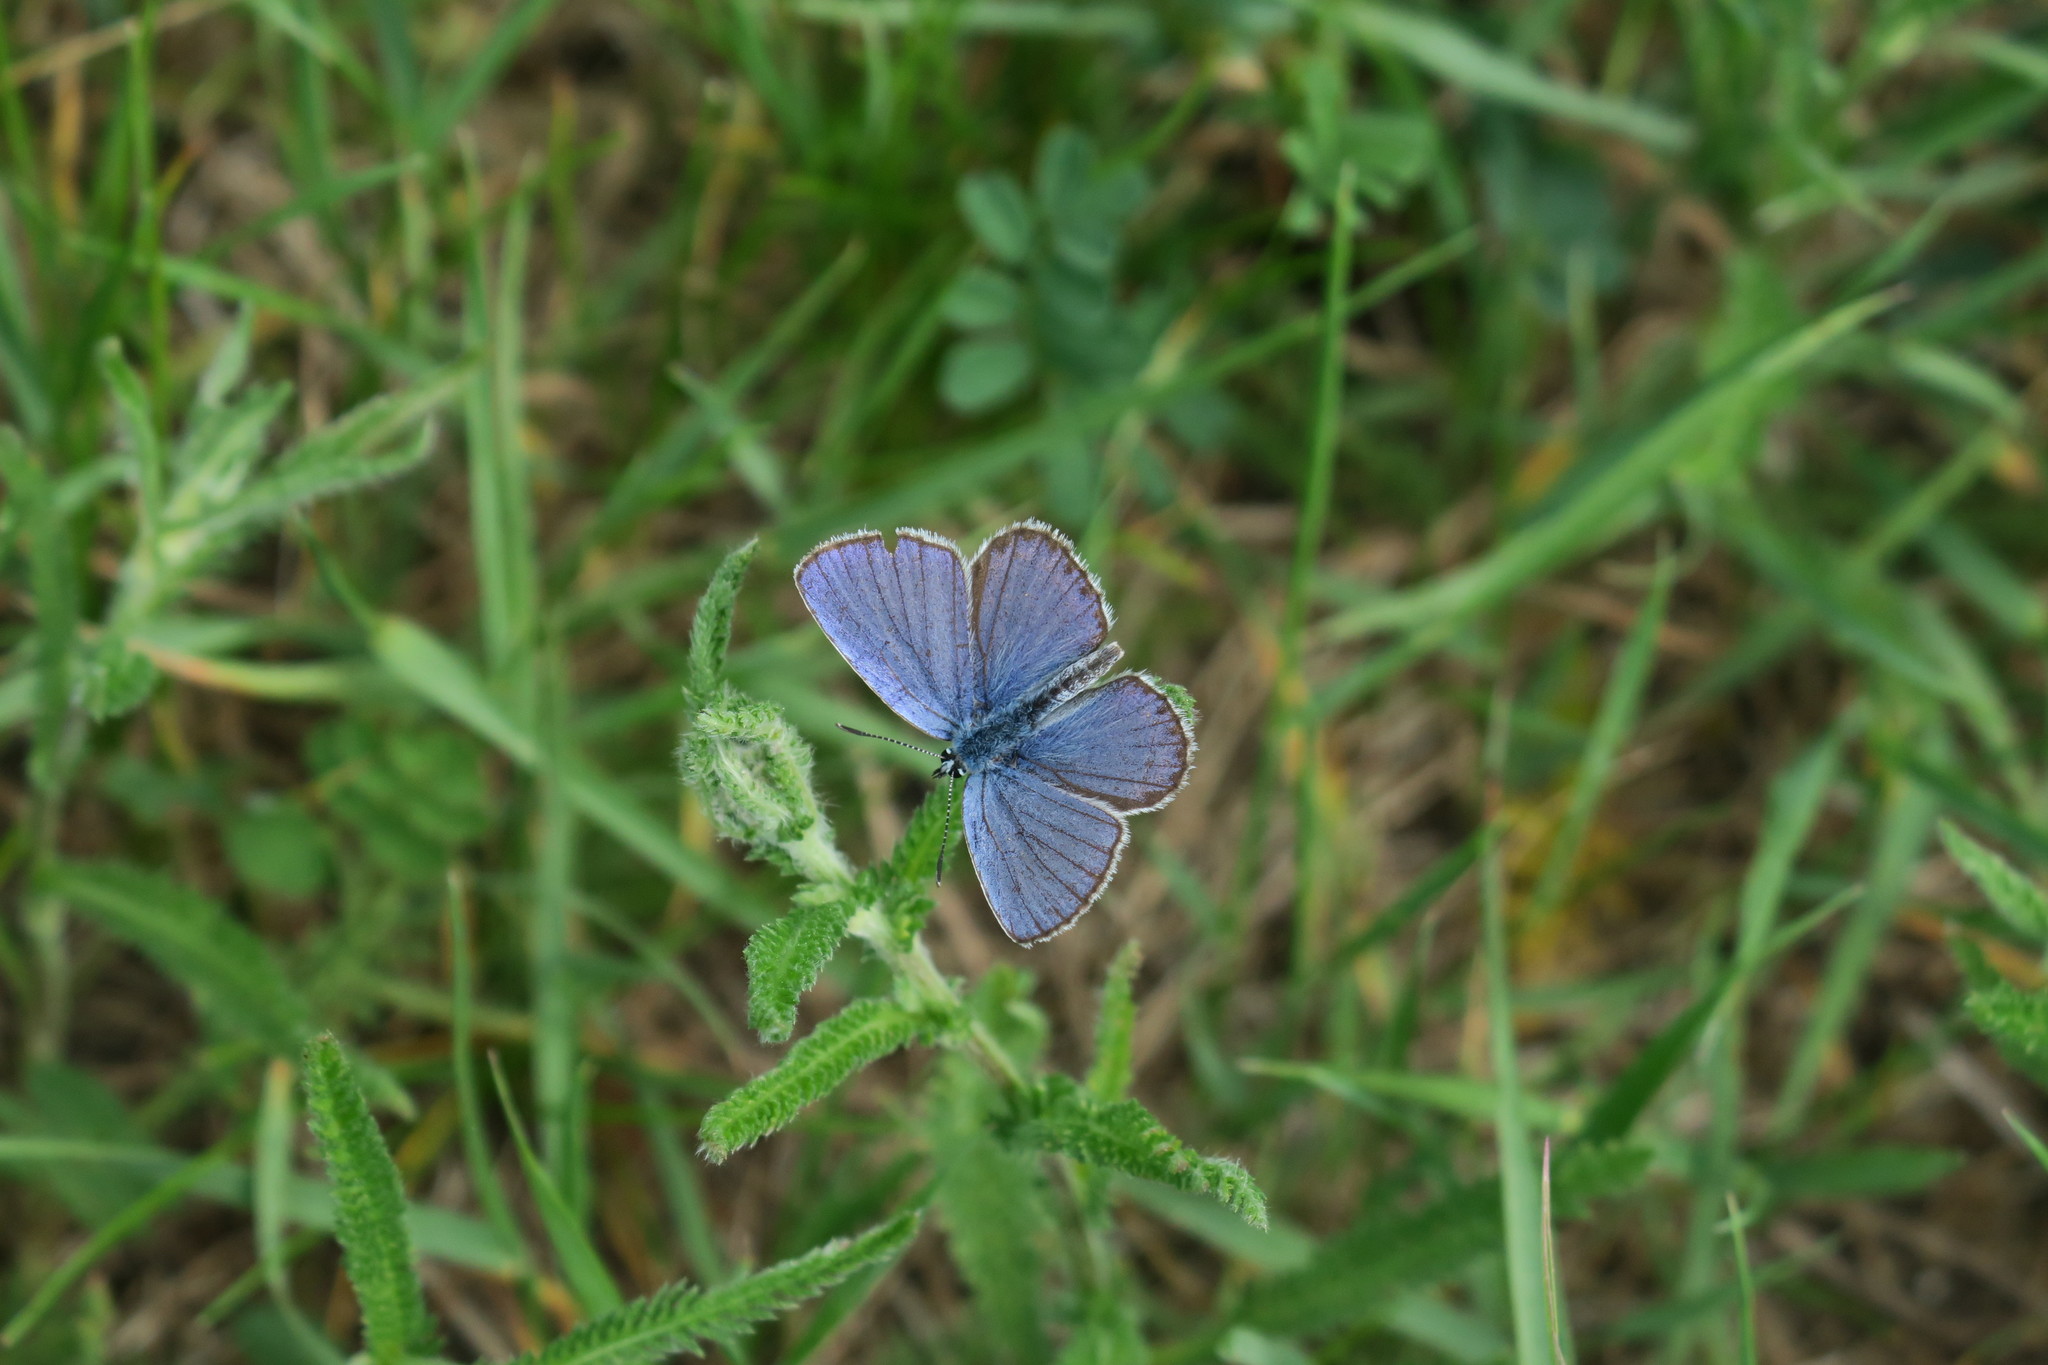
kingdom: Animalia
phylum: Arthropoda
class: Insecta
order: Lepidoptera
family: Lycaenidae
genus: Plebejus
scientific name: Plebejus argyrognomon
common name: Reverdin's blue
